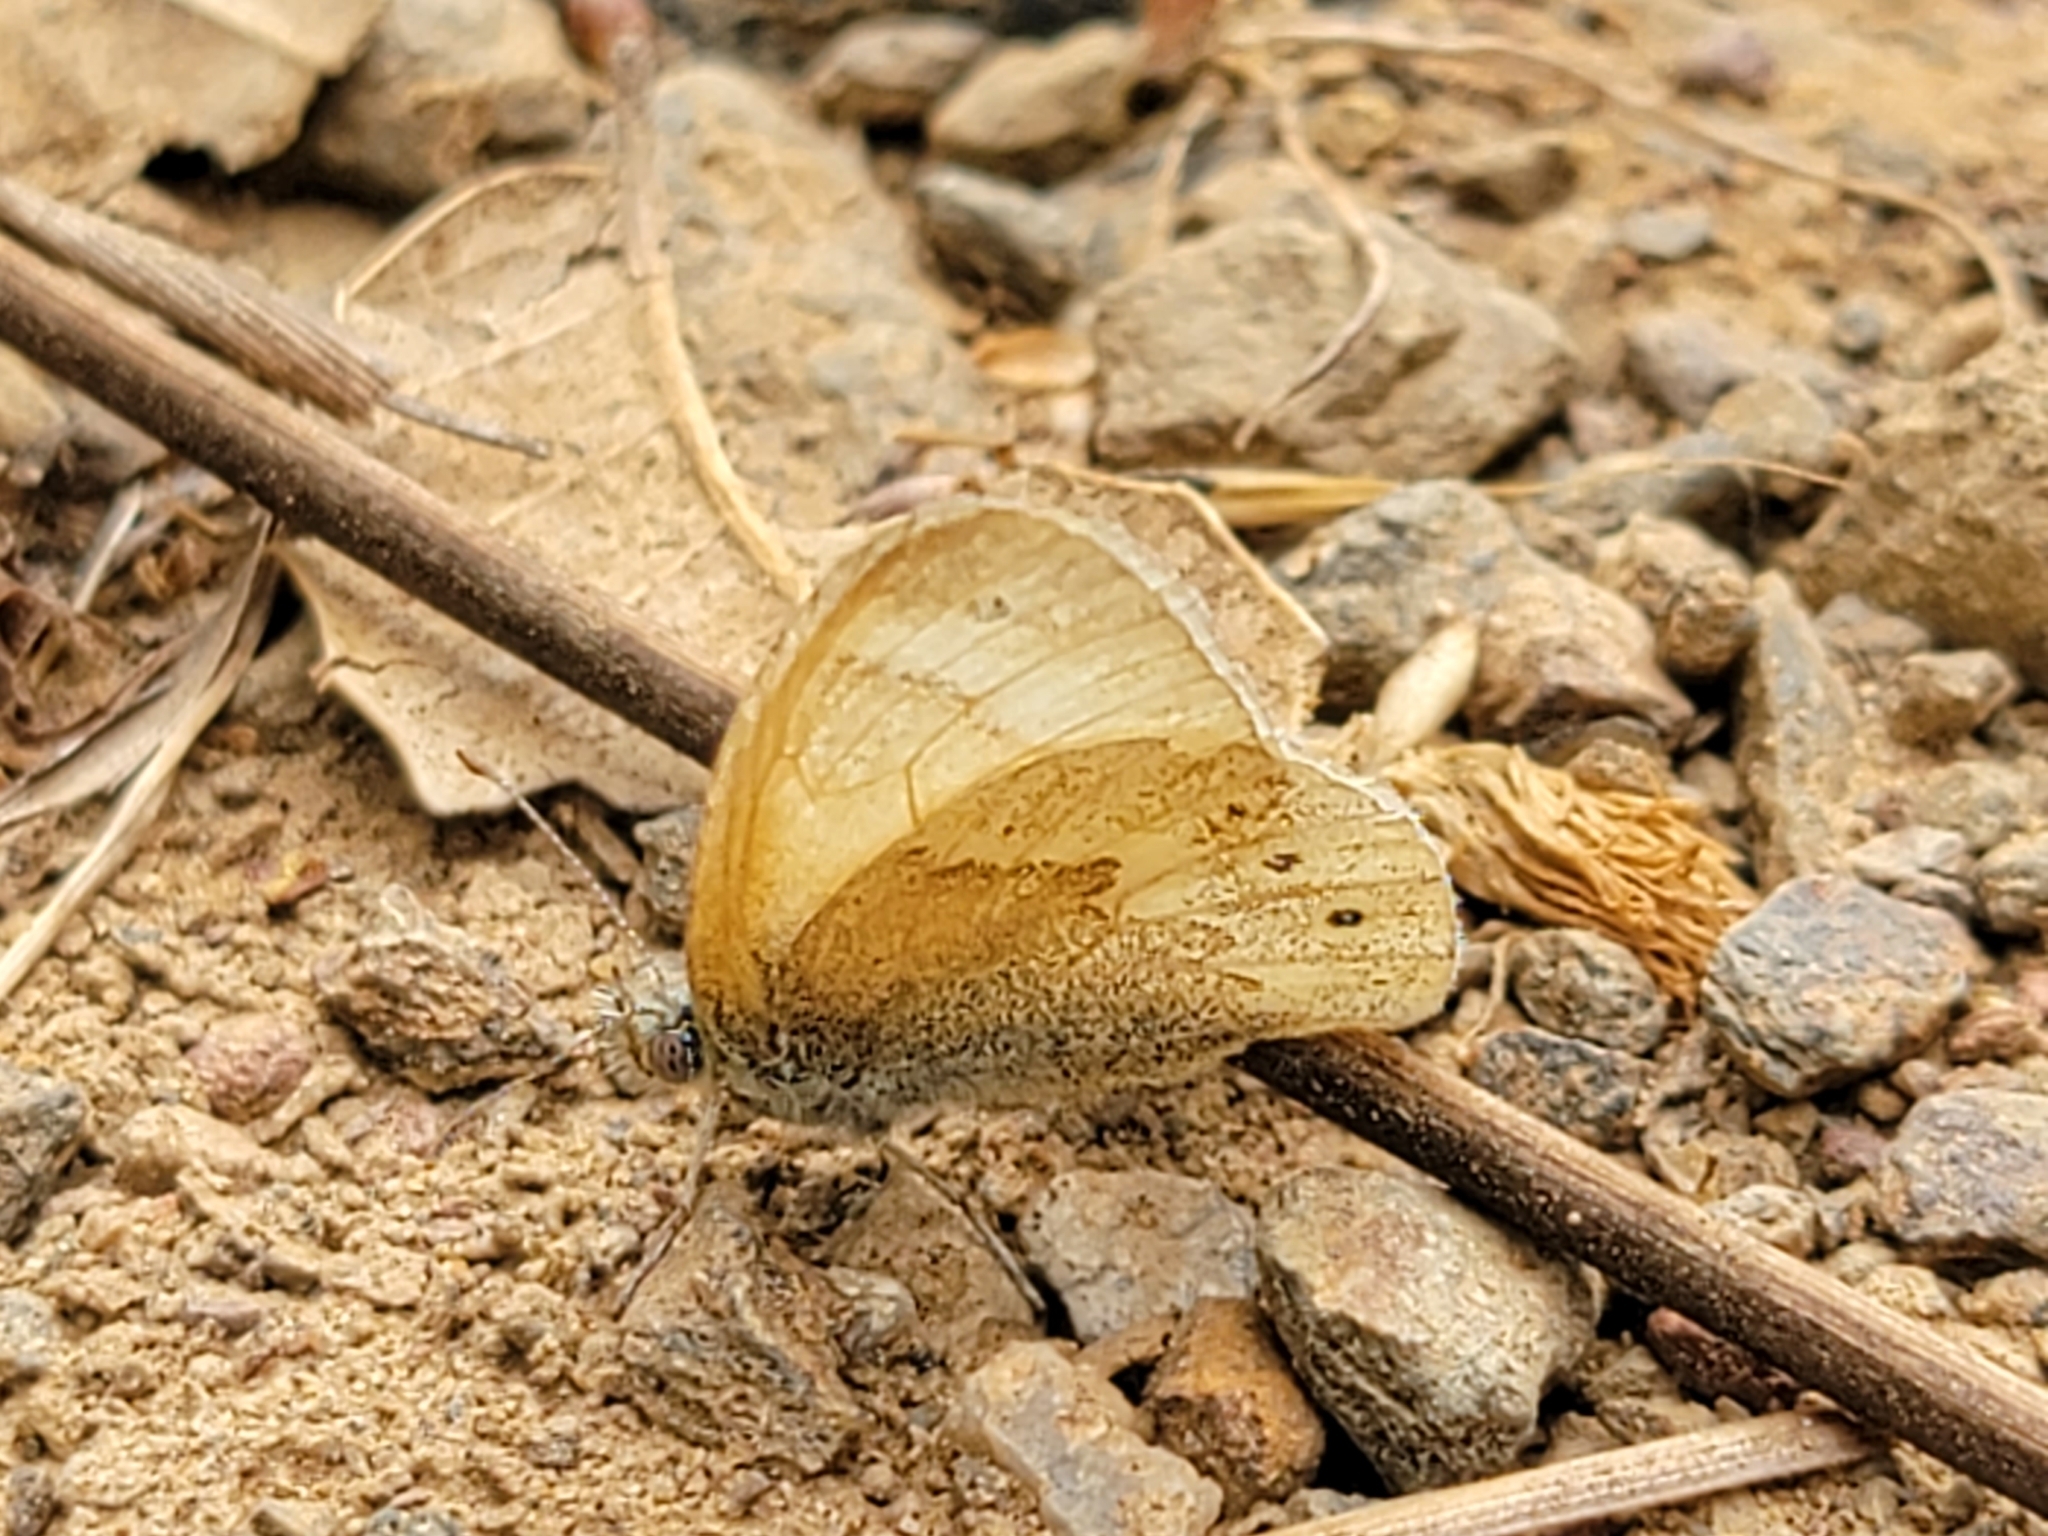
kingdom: Animalia
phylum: Arthropoda
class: Insecta
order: Lepidoptera
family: Nymphalidae
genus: Coenonympha
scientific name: Coenonympha california
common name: Common ringlet
